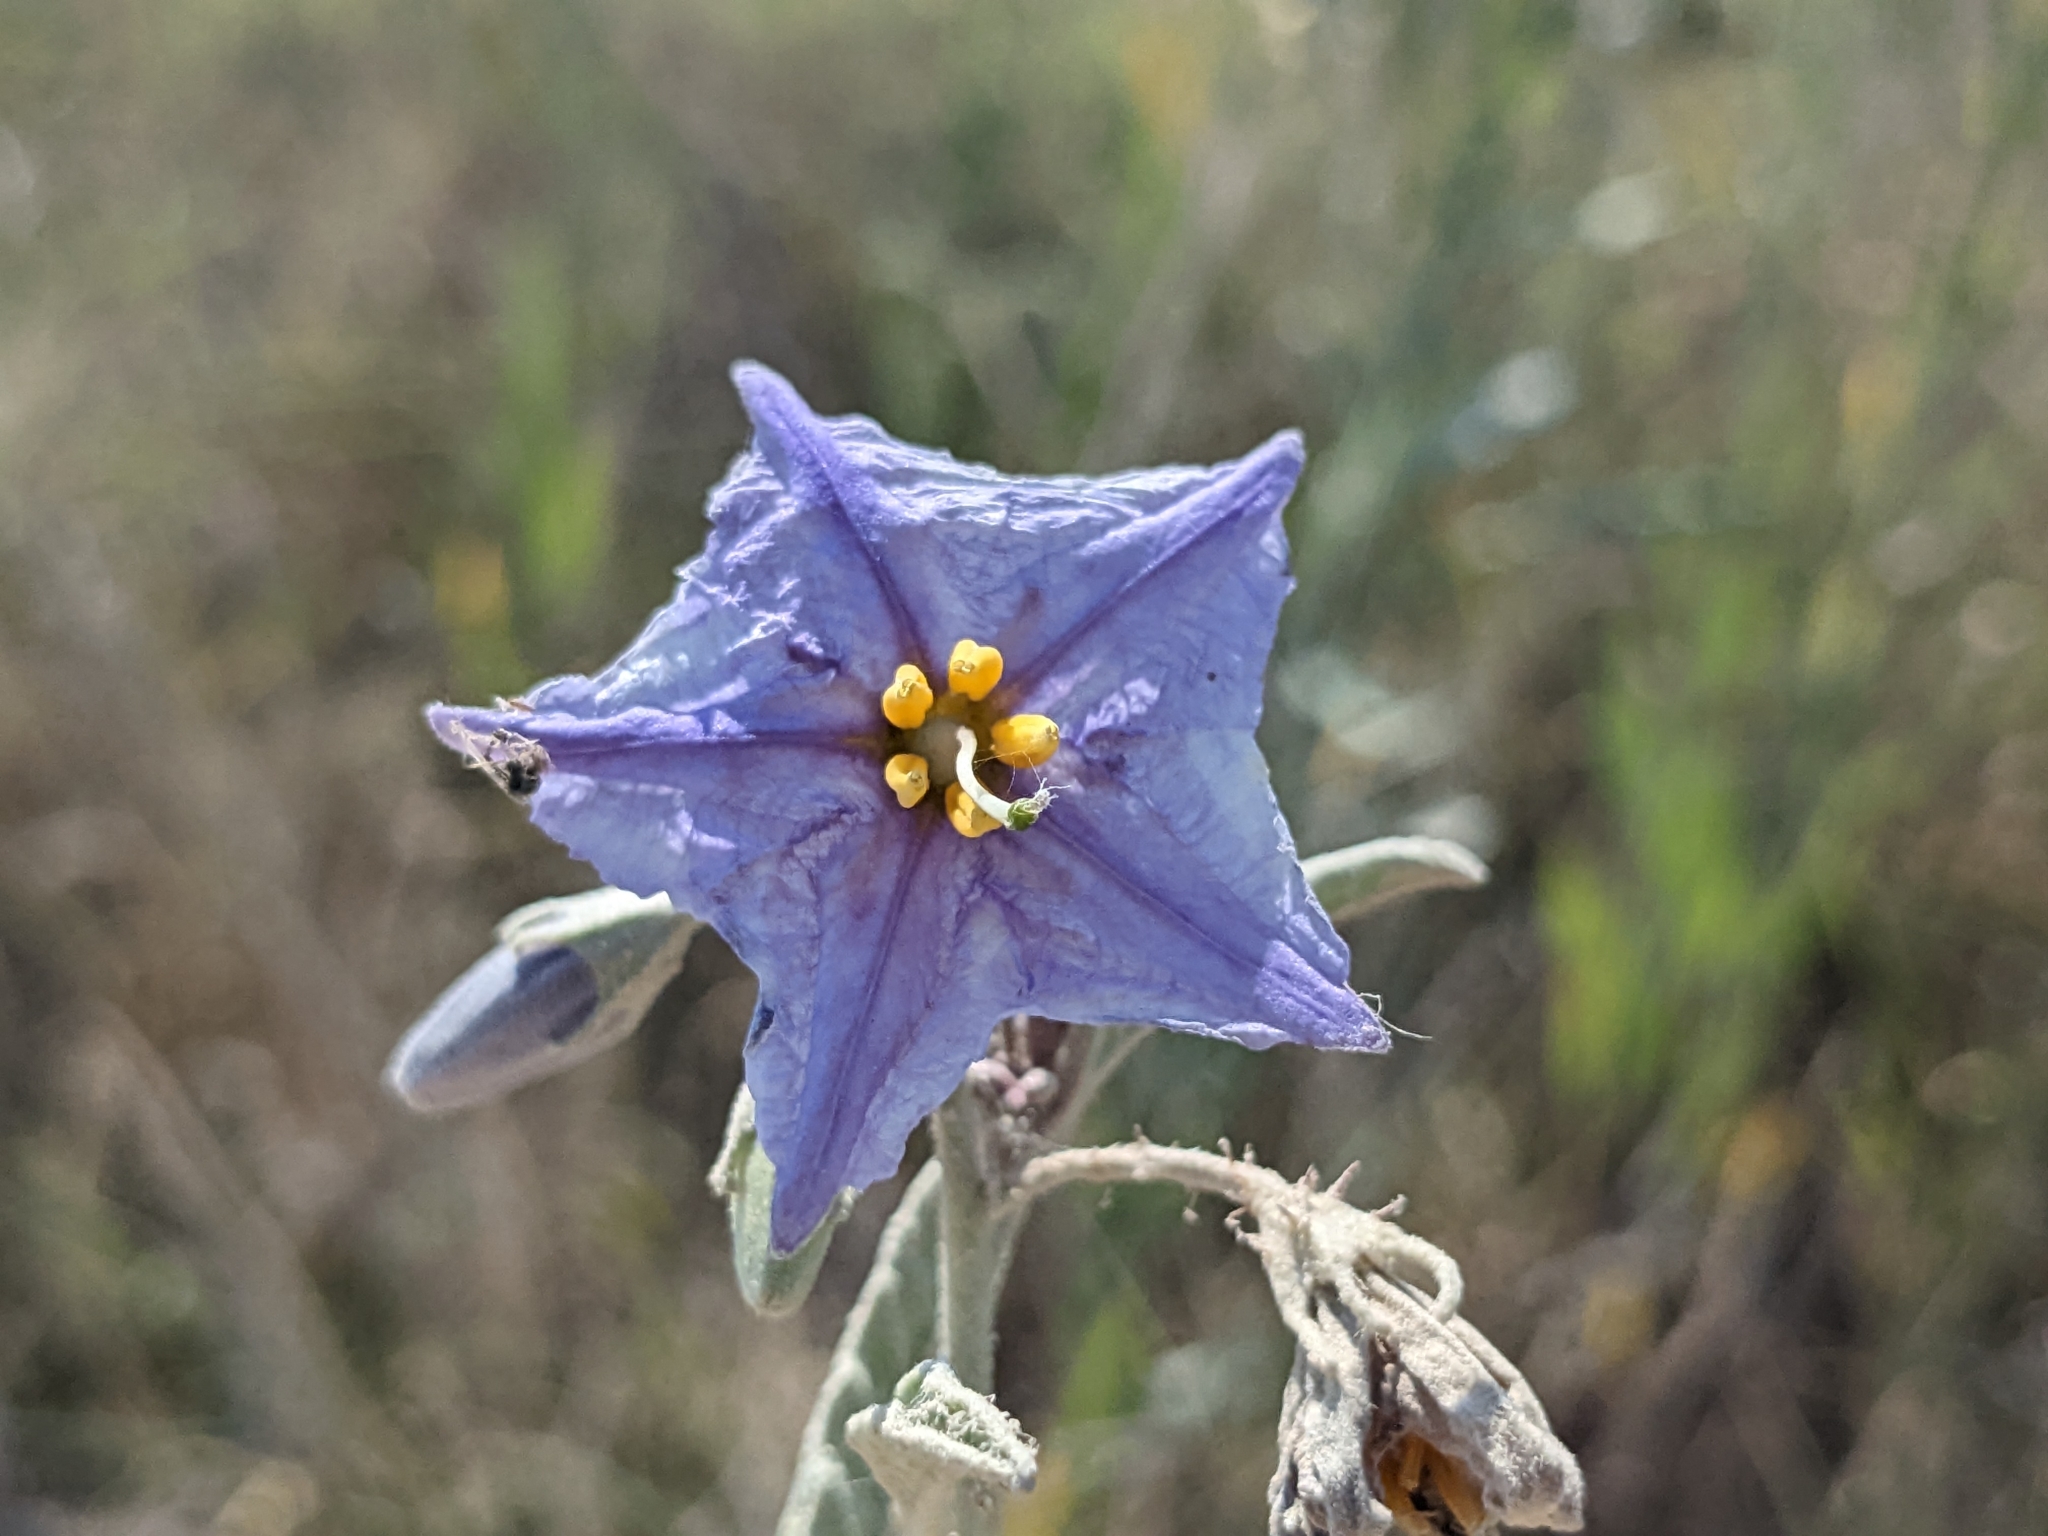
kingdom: Plantae
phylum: Tracheophyta
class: Magnoliopsida
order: Solanales
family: Solanaceae
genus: Solanum
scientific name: Solanum elaeagnifolium
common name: Silverleaf nightshade
